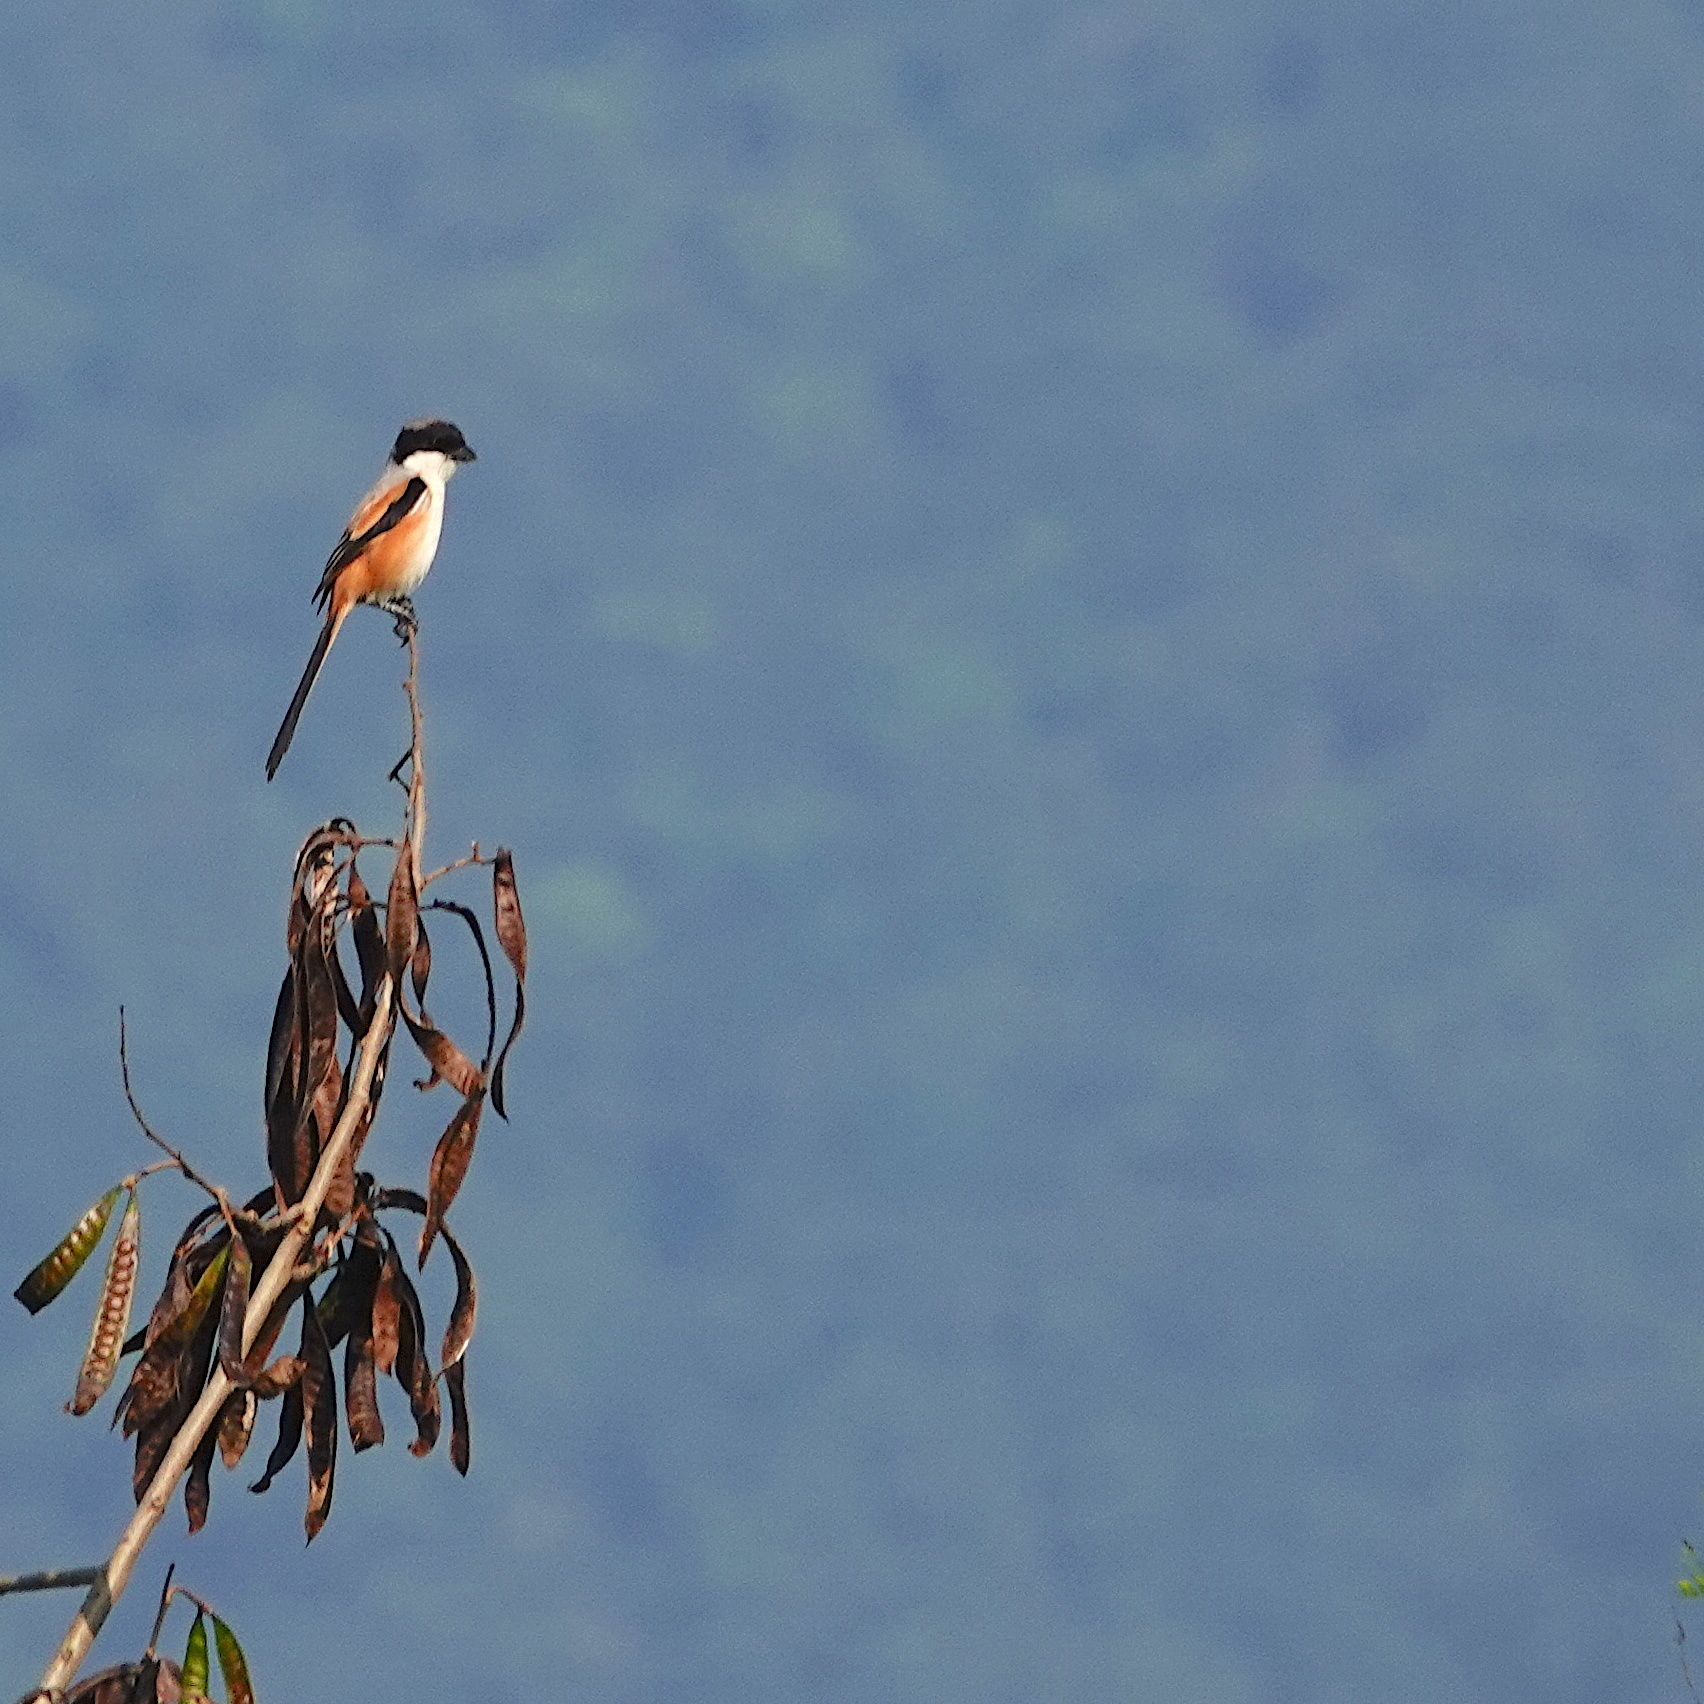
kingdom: Animalia
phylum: Chordata
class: Aves
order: Passeriformes
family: Laniidae
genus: Lanius
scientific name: Lanius schach
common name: Long-tailed shrike
